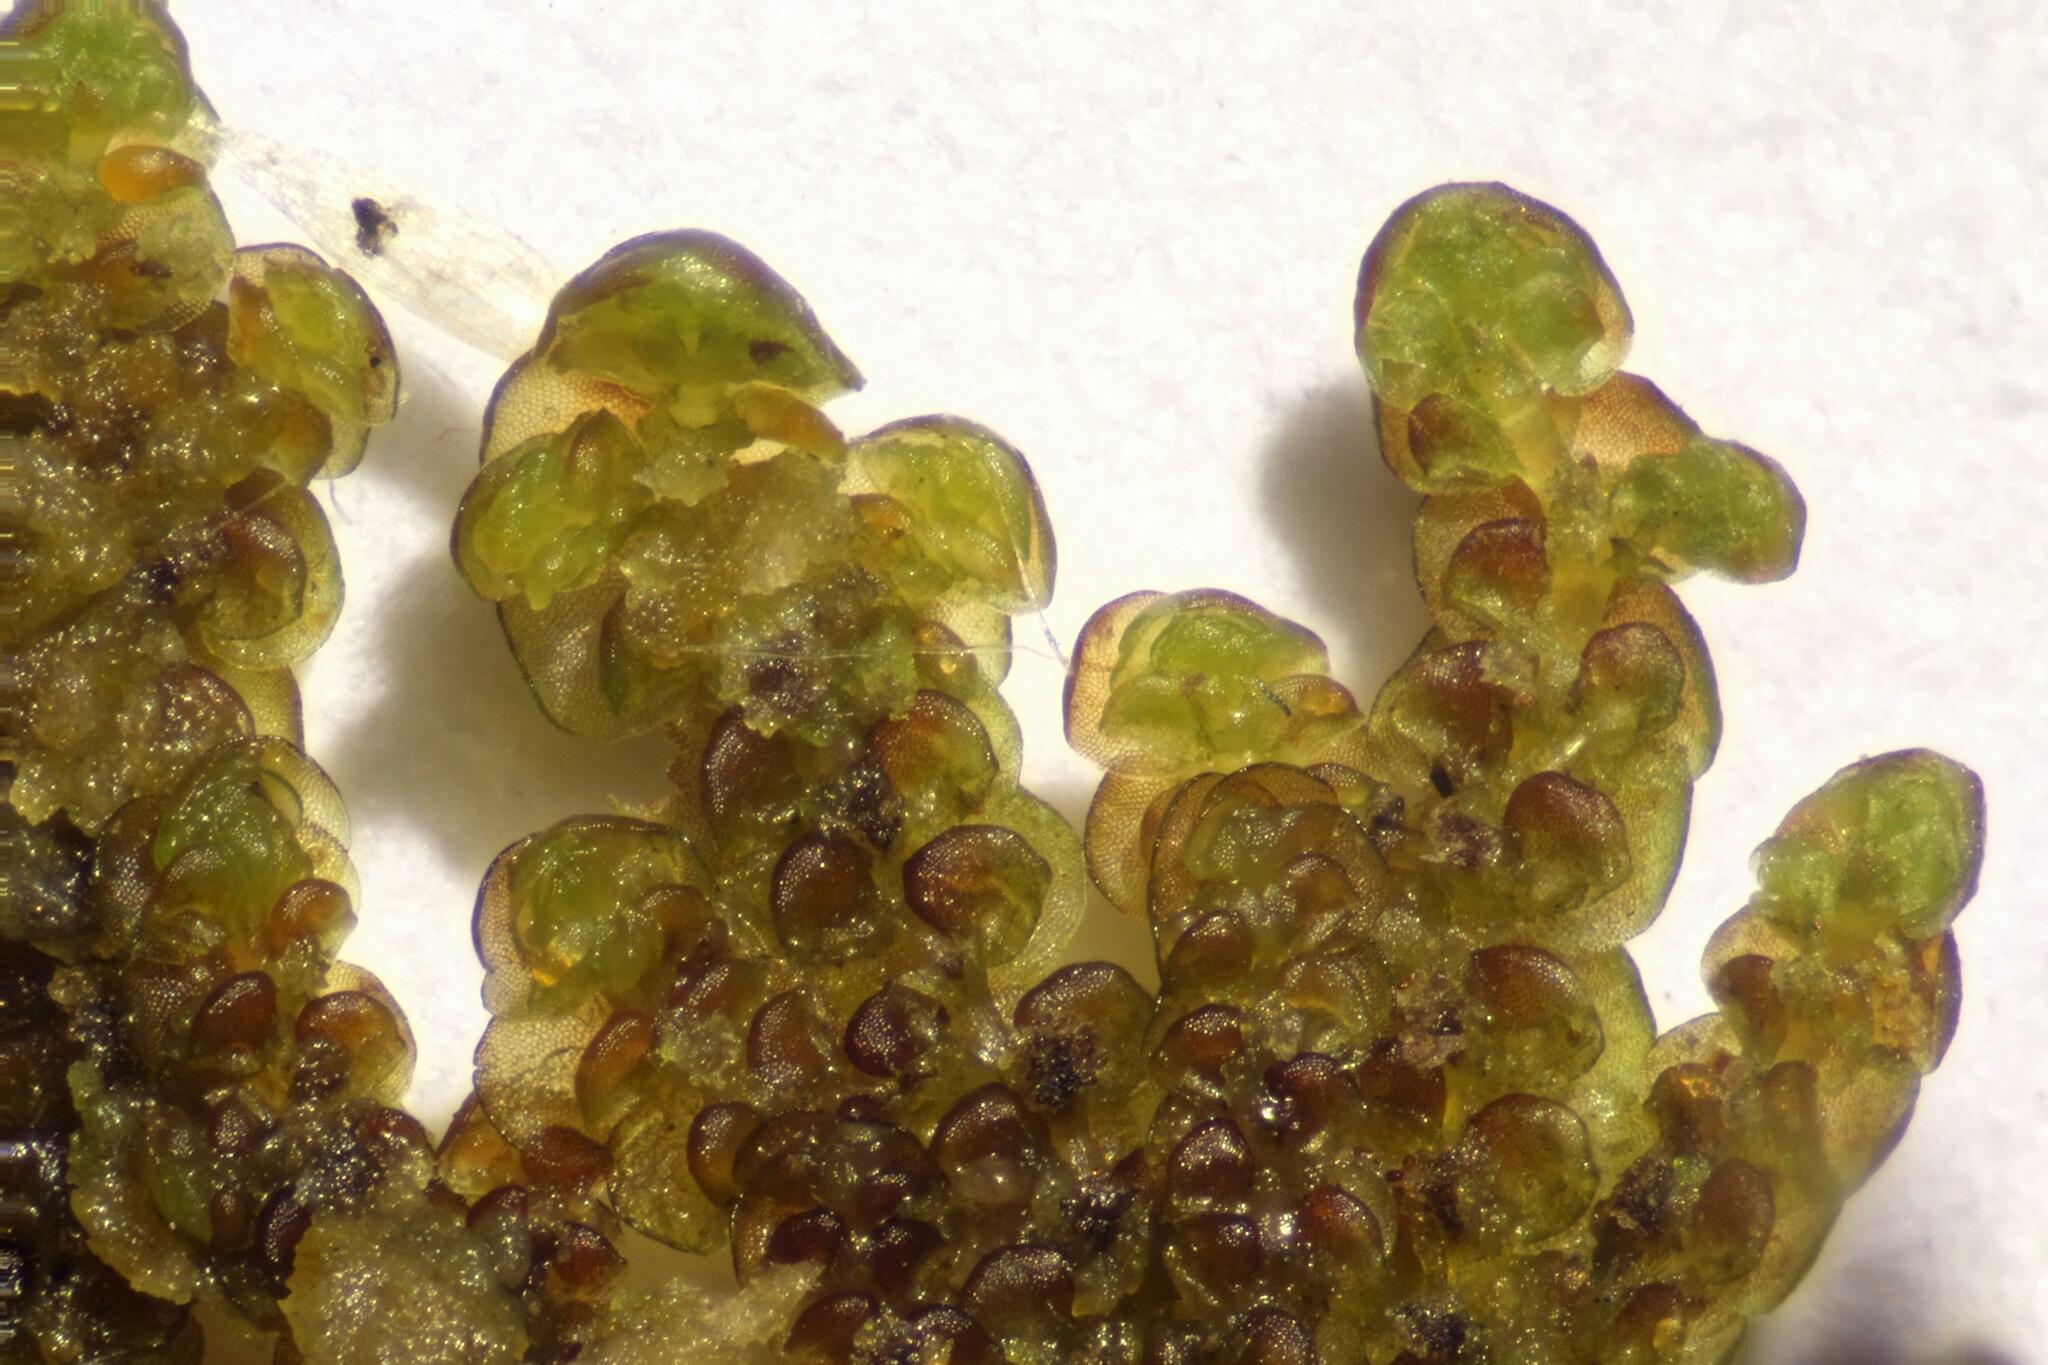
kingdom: Plantae
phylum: Marchantiophyta
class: Jungermanniopsida
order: Porellales
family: Frullaniaceae
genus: Frullania
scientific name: Frullania dilatata
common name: Dilated scalewort
